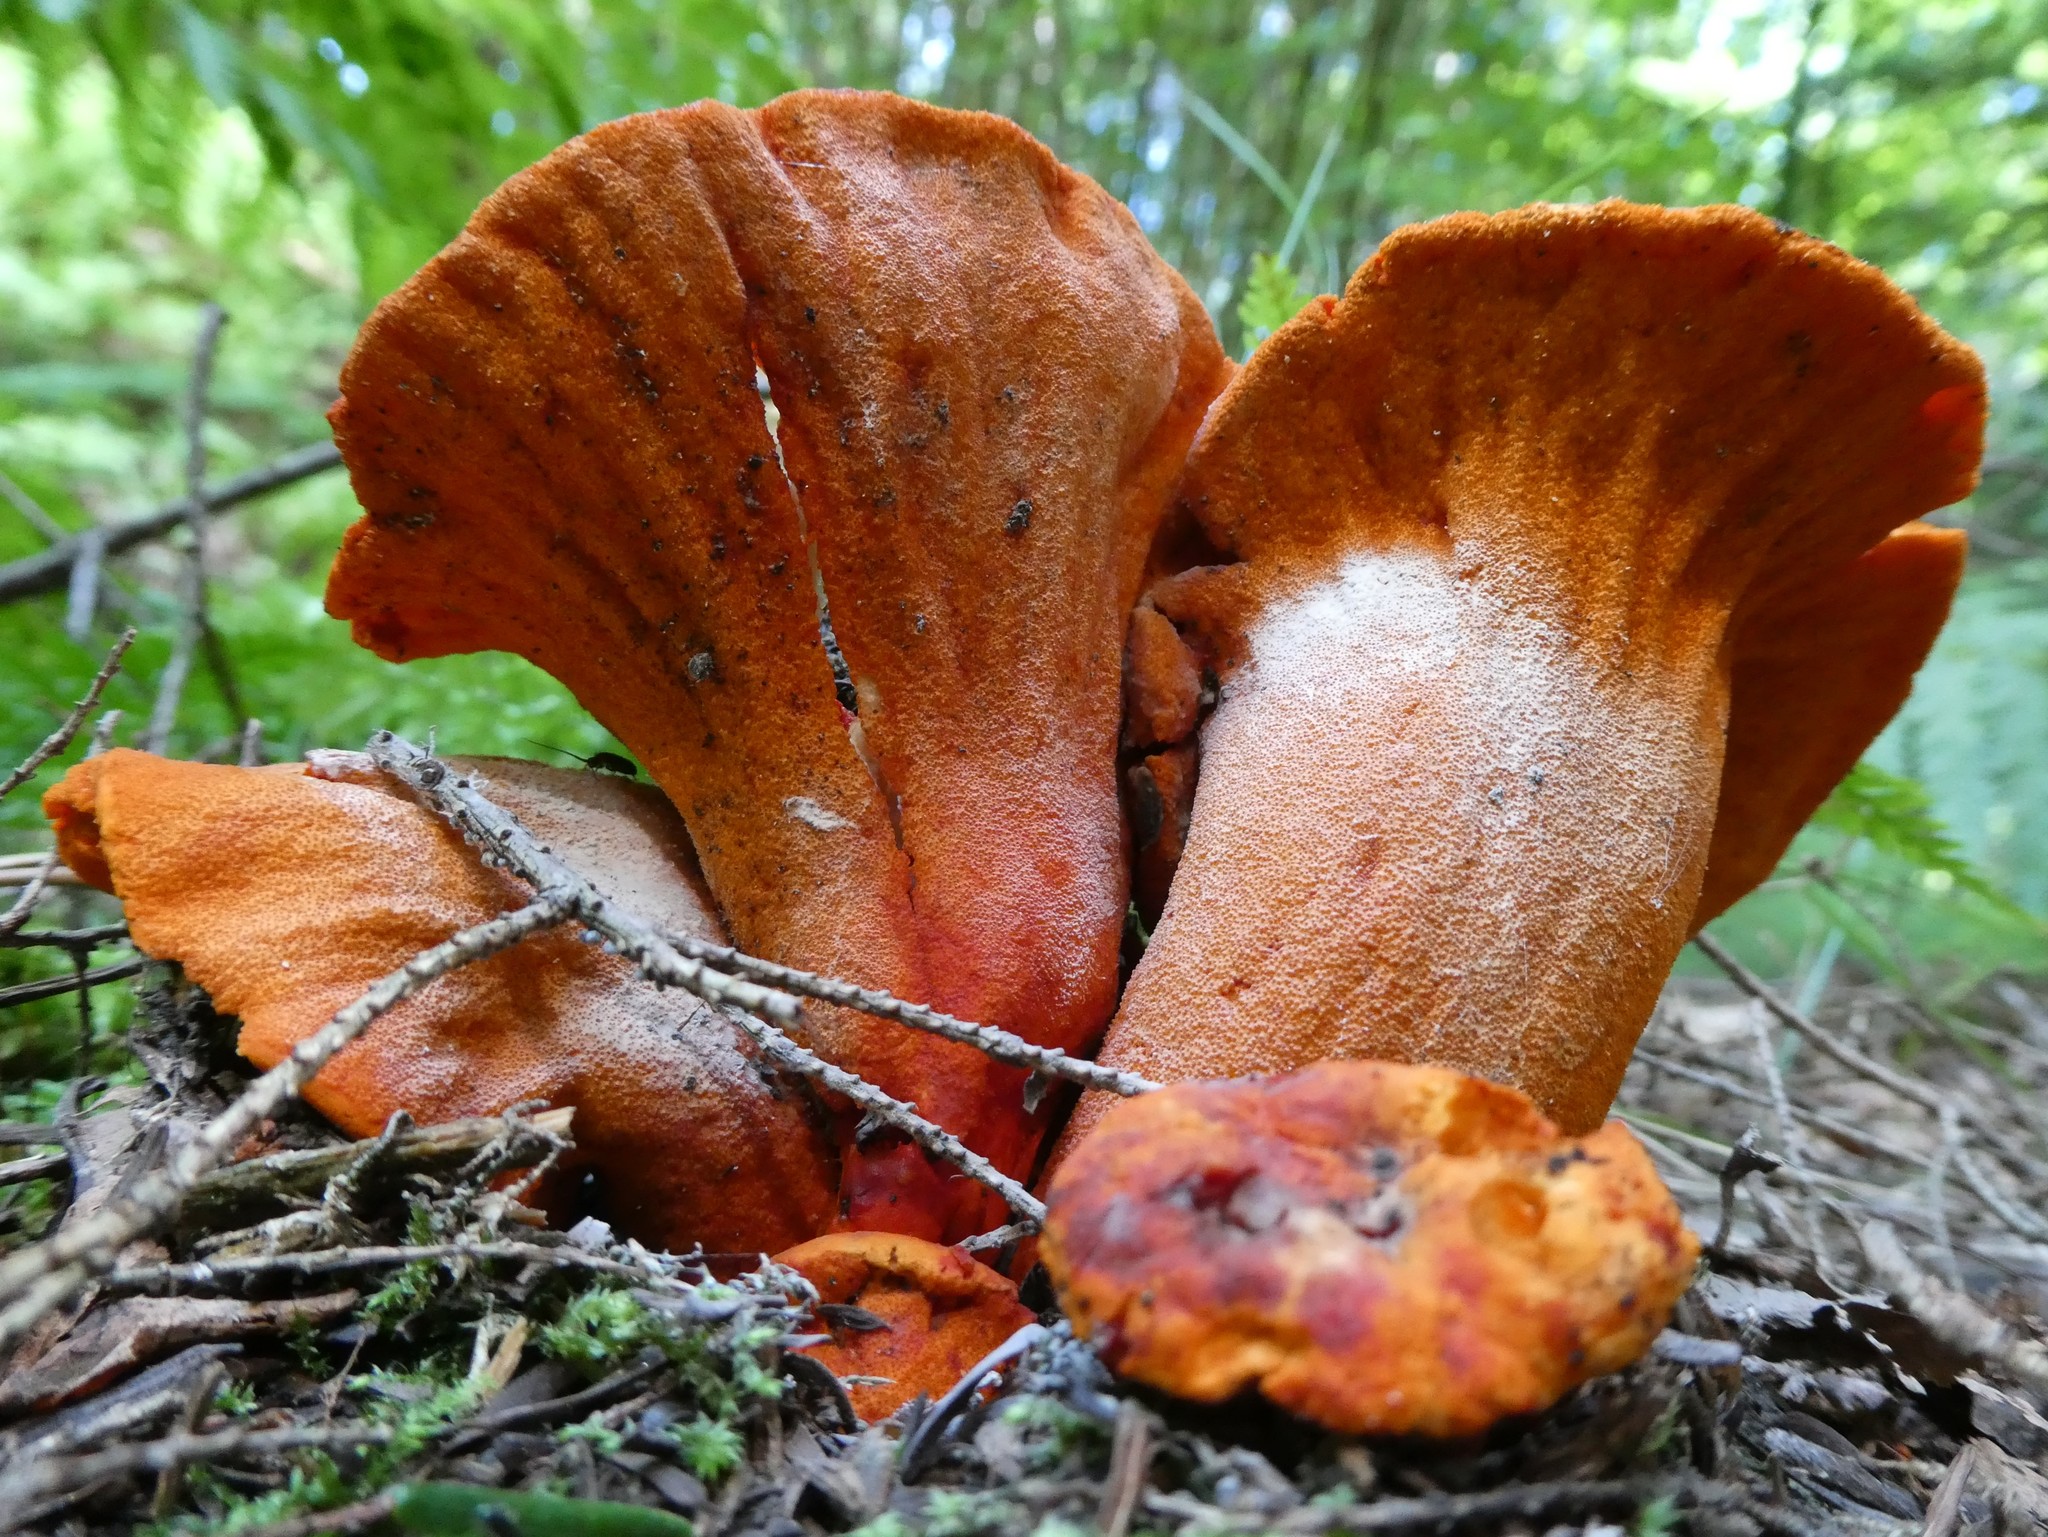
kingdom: Fungi
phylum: Ascomycota
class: Sordariomycetes
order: Hypocreales
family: Hypocreaceae
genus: Hypomyces
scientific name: Hypomyces lactifluorum
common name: Lobster mushroom
